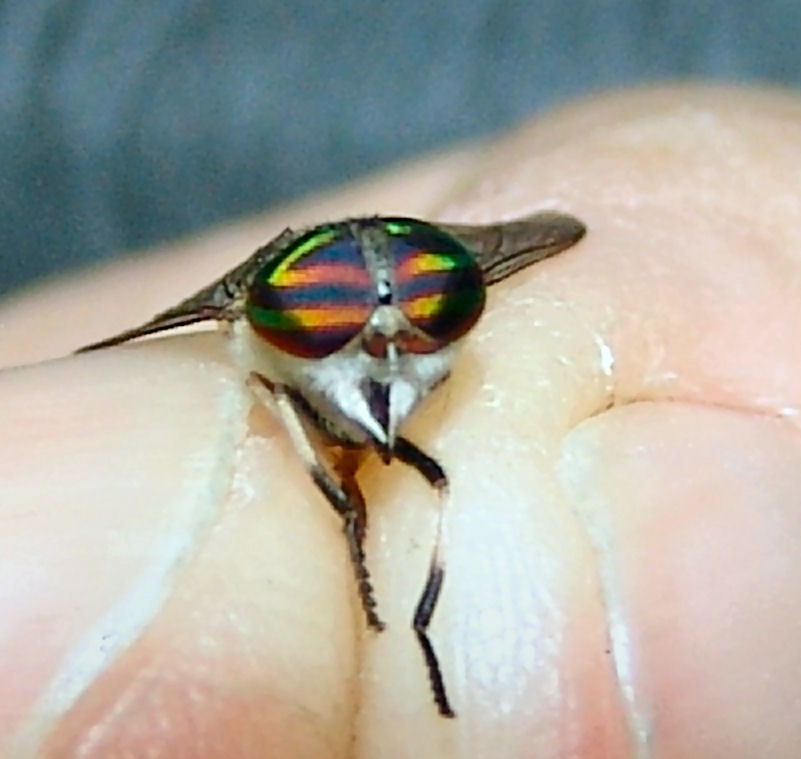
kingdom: Animalia
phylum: Arthropoda
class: Insecta
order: Diptera
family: Tabanidae
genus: Tabanus
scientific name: Tabanus lineola
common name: Striped horse fly
